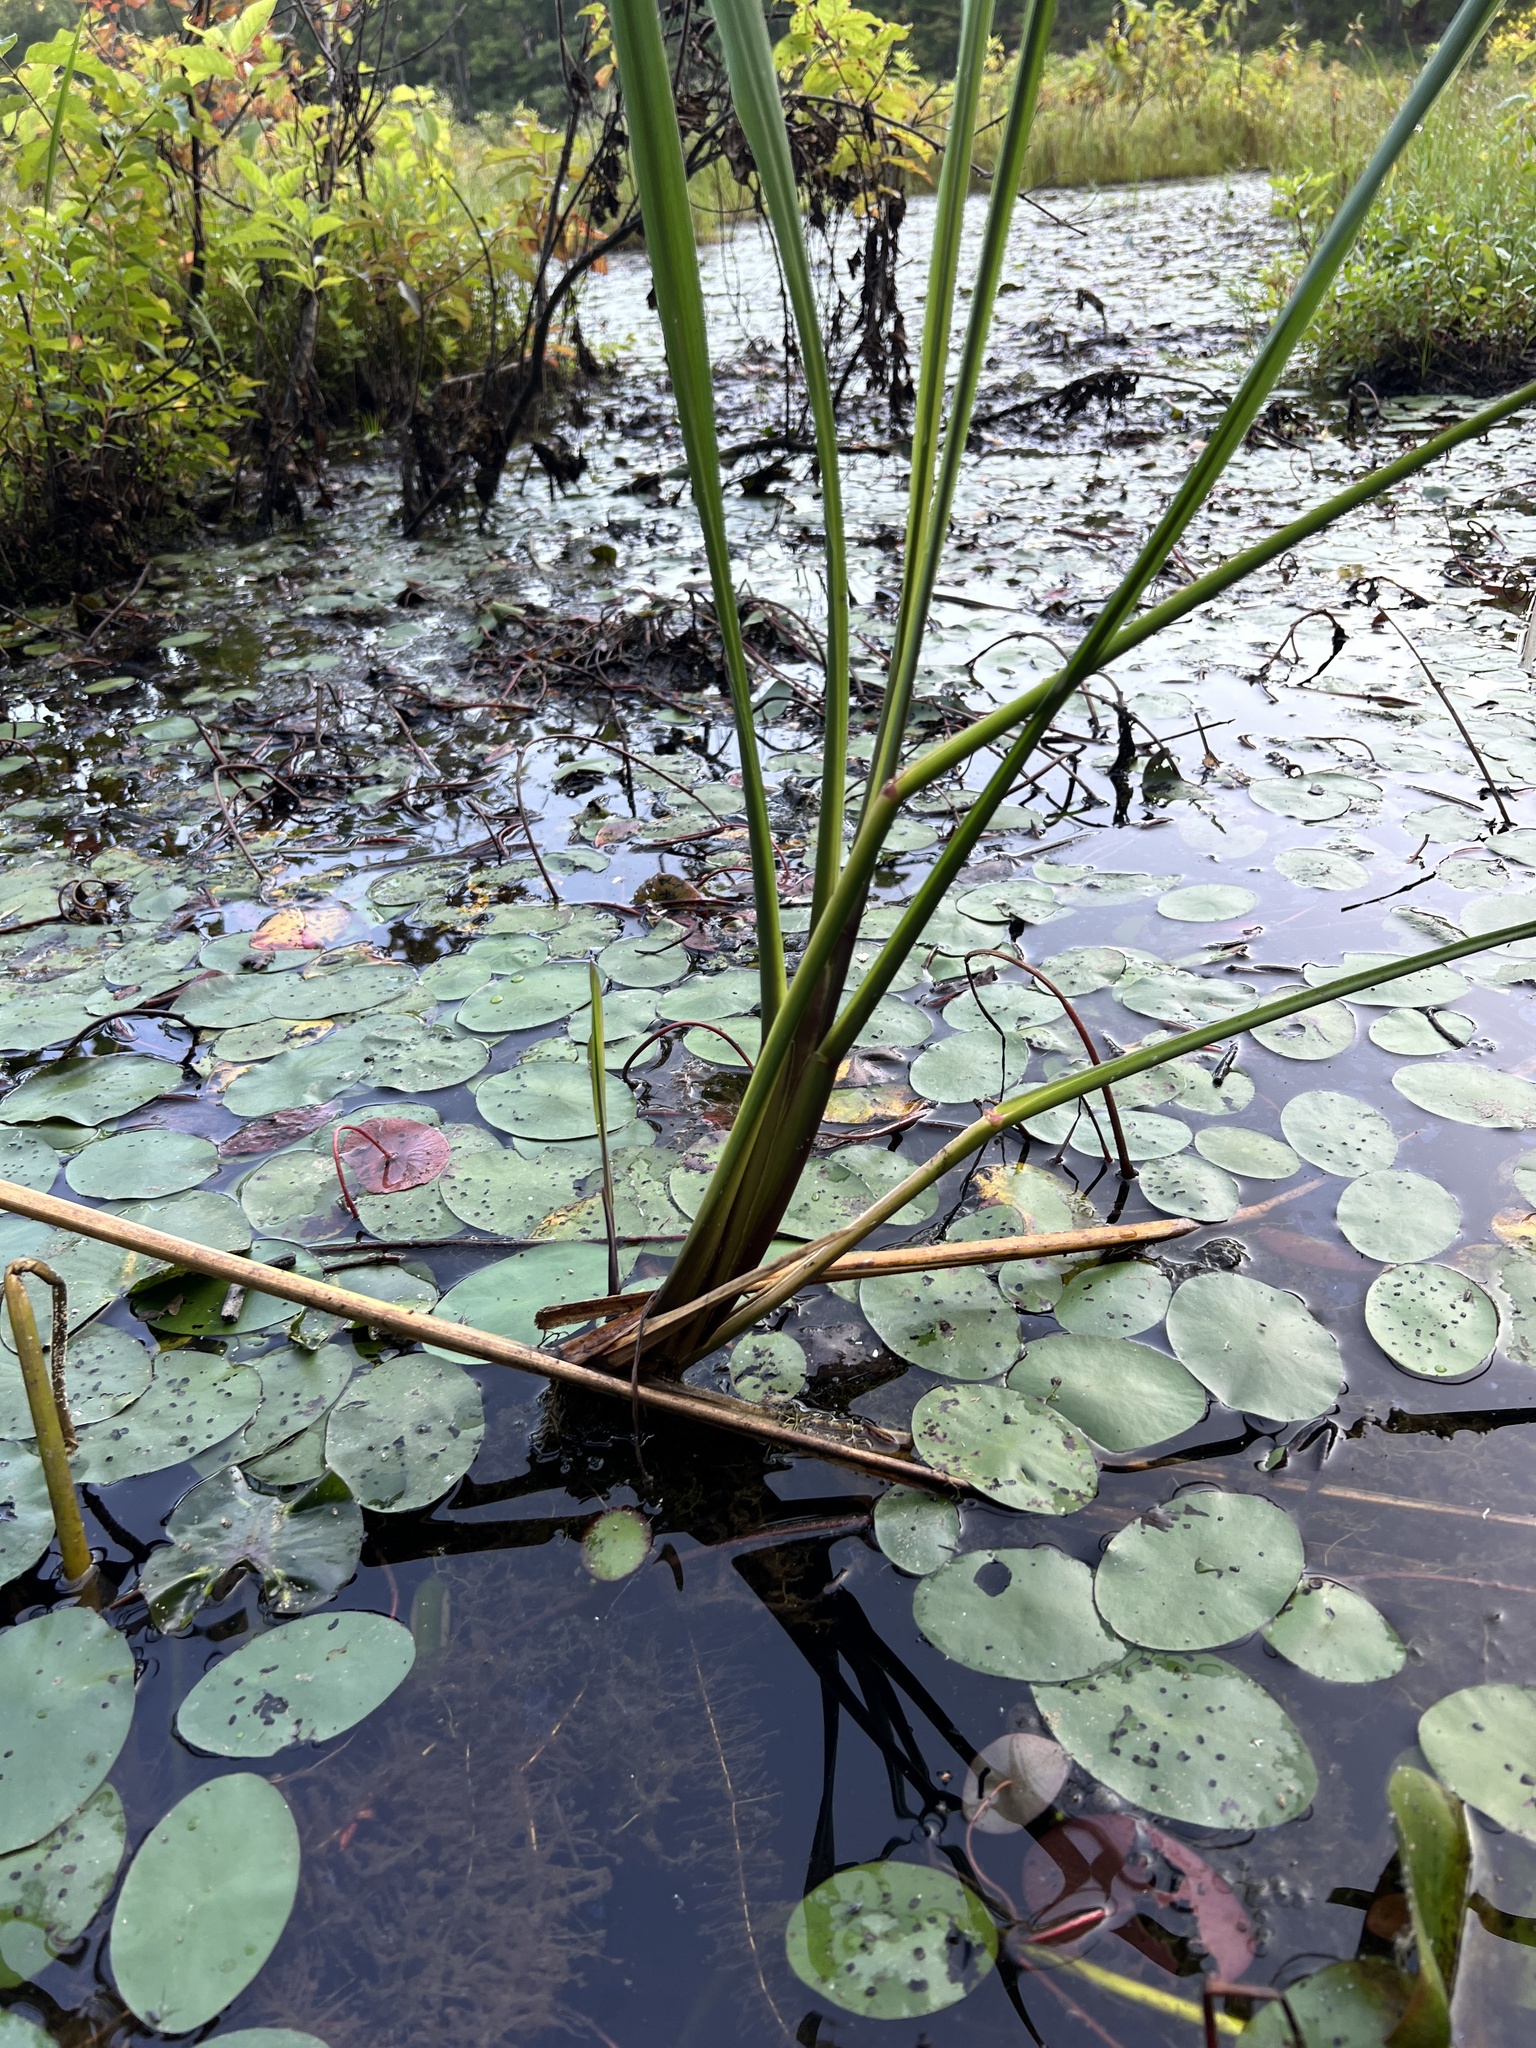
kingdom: Plantae
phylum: Tracheophyta
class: Liliopsida
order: Poales
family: Poaceae
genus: Zizaniopsis
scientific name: Zizaniopsis miliacea
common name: Giant-cutgrass
